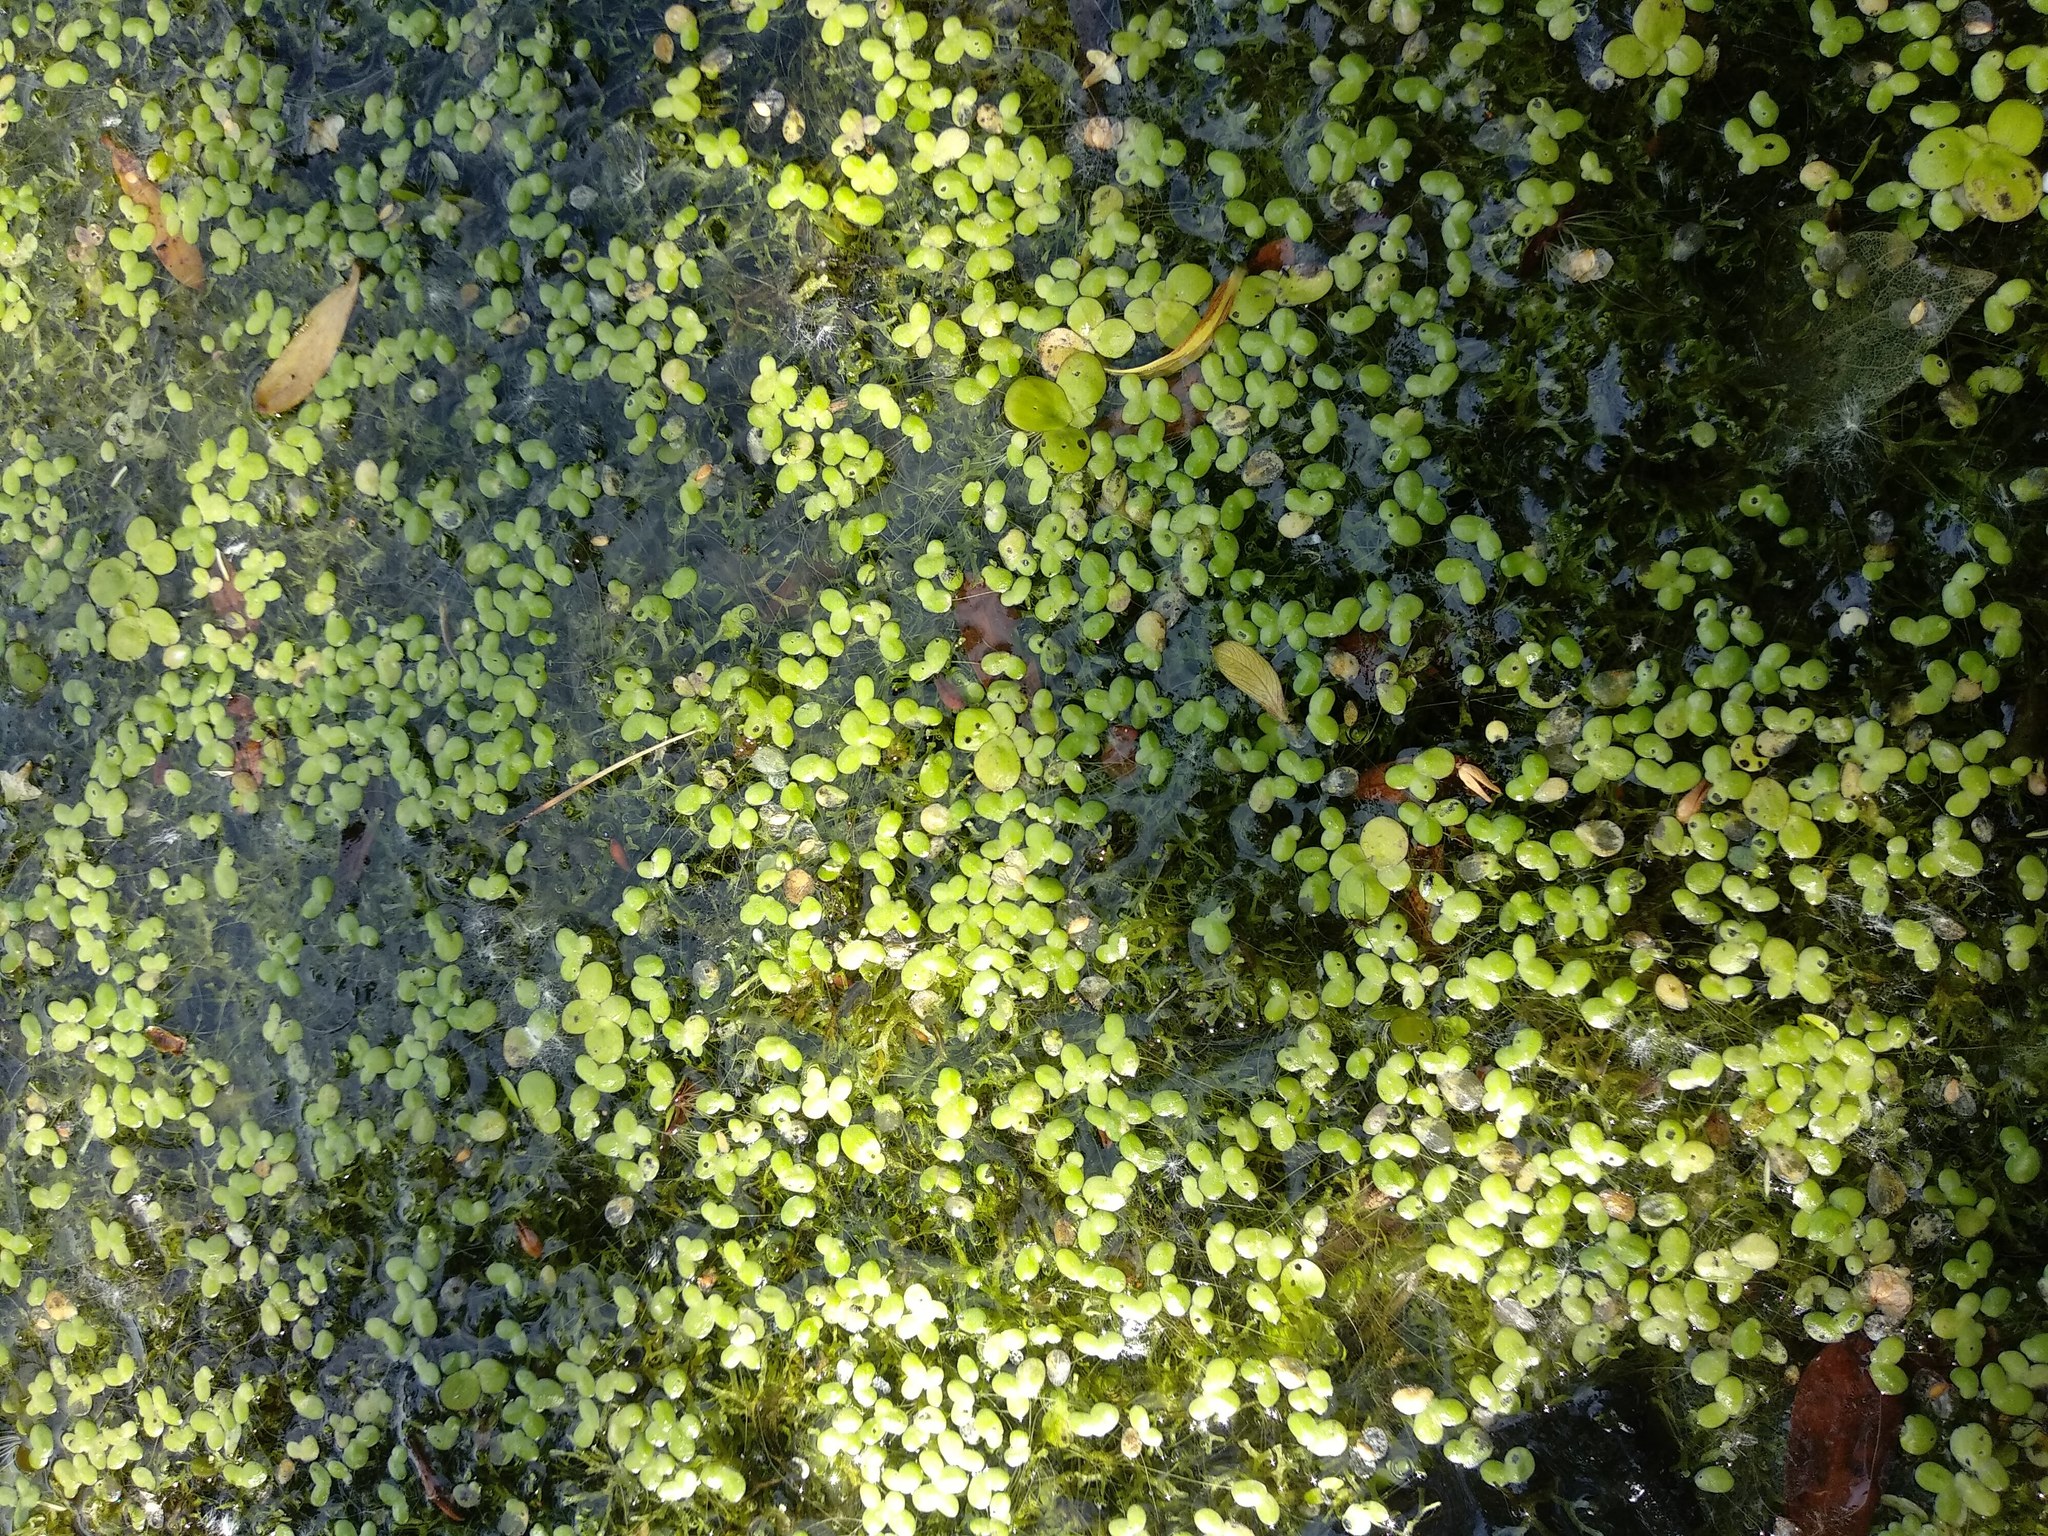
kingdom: Plantae
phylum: Tracheophyta
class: Liliopsida
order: Alismatales
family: Araceae
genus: Lemna
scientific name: Lemna minor
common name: Common duckweed
